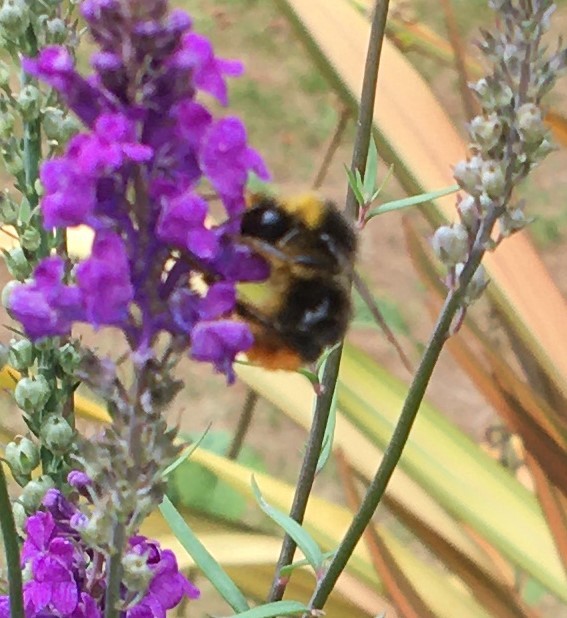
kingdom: Animalia
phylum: Arthropoda
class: Insecta
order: Hymenoptera
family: Apidae
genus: Bombus
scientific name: Bombus lapidarius
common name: Large red-tailed humble-bee
